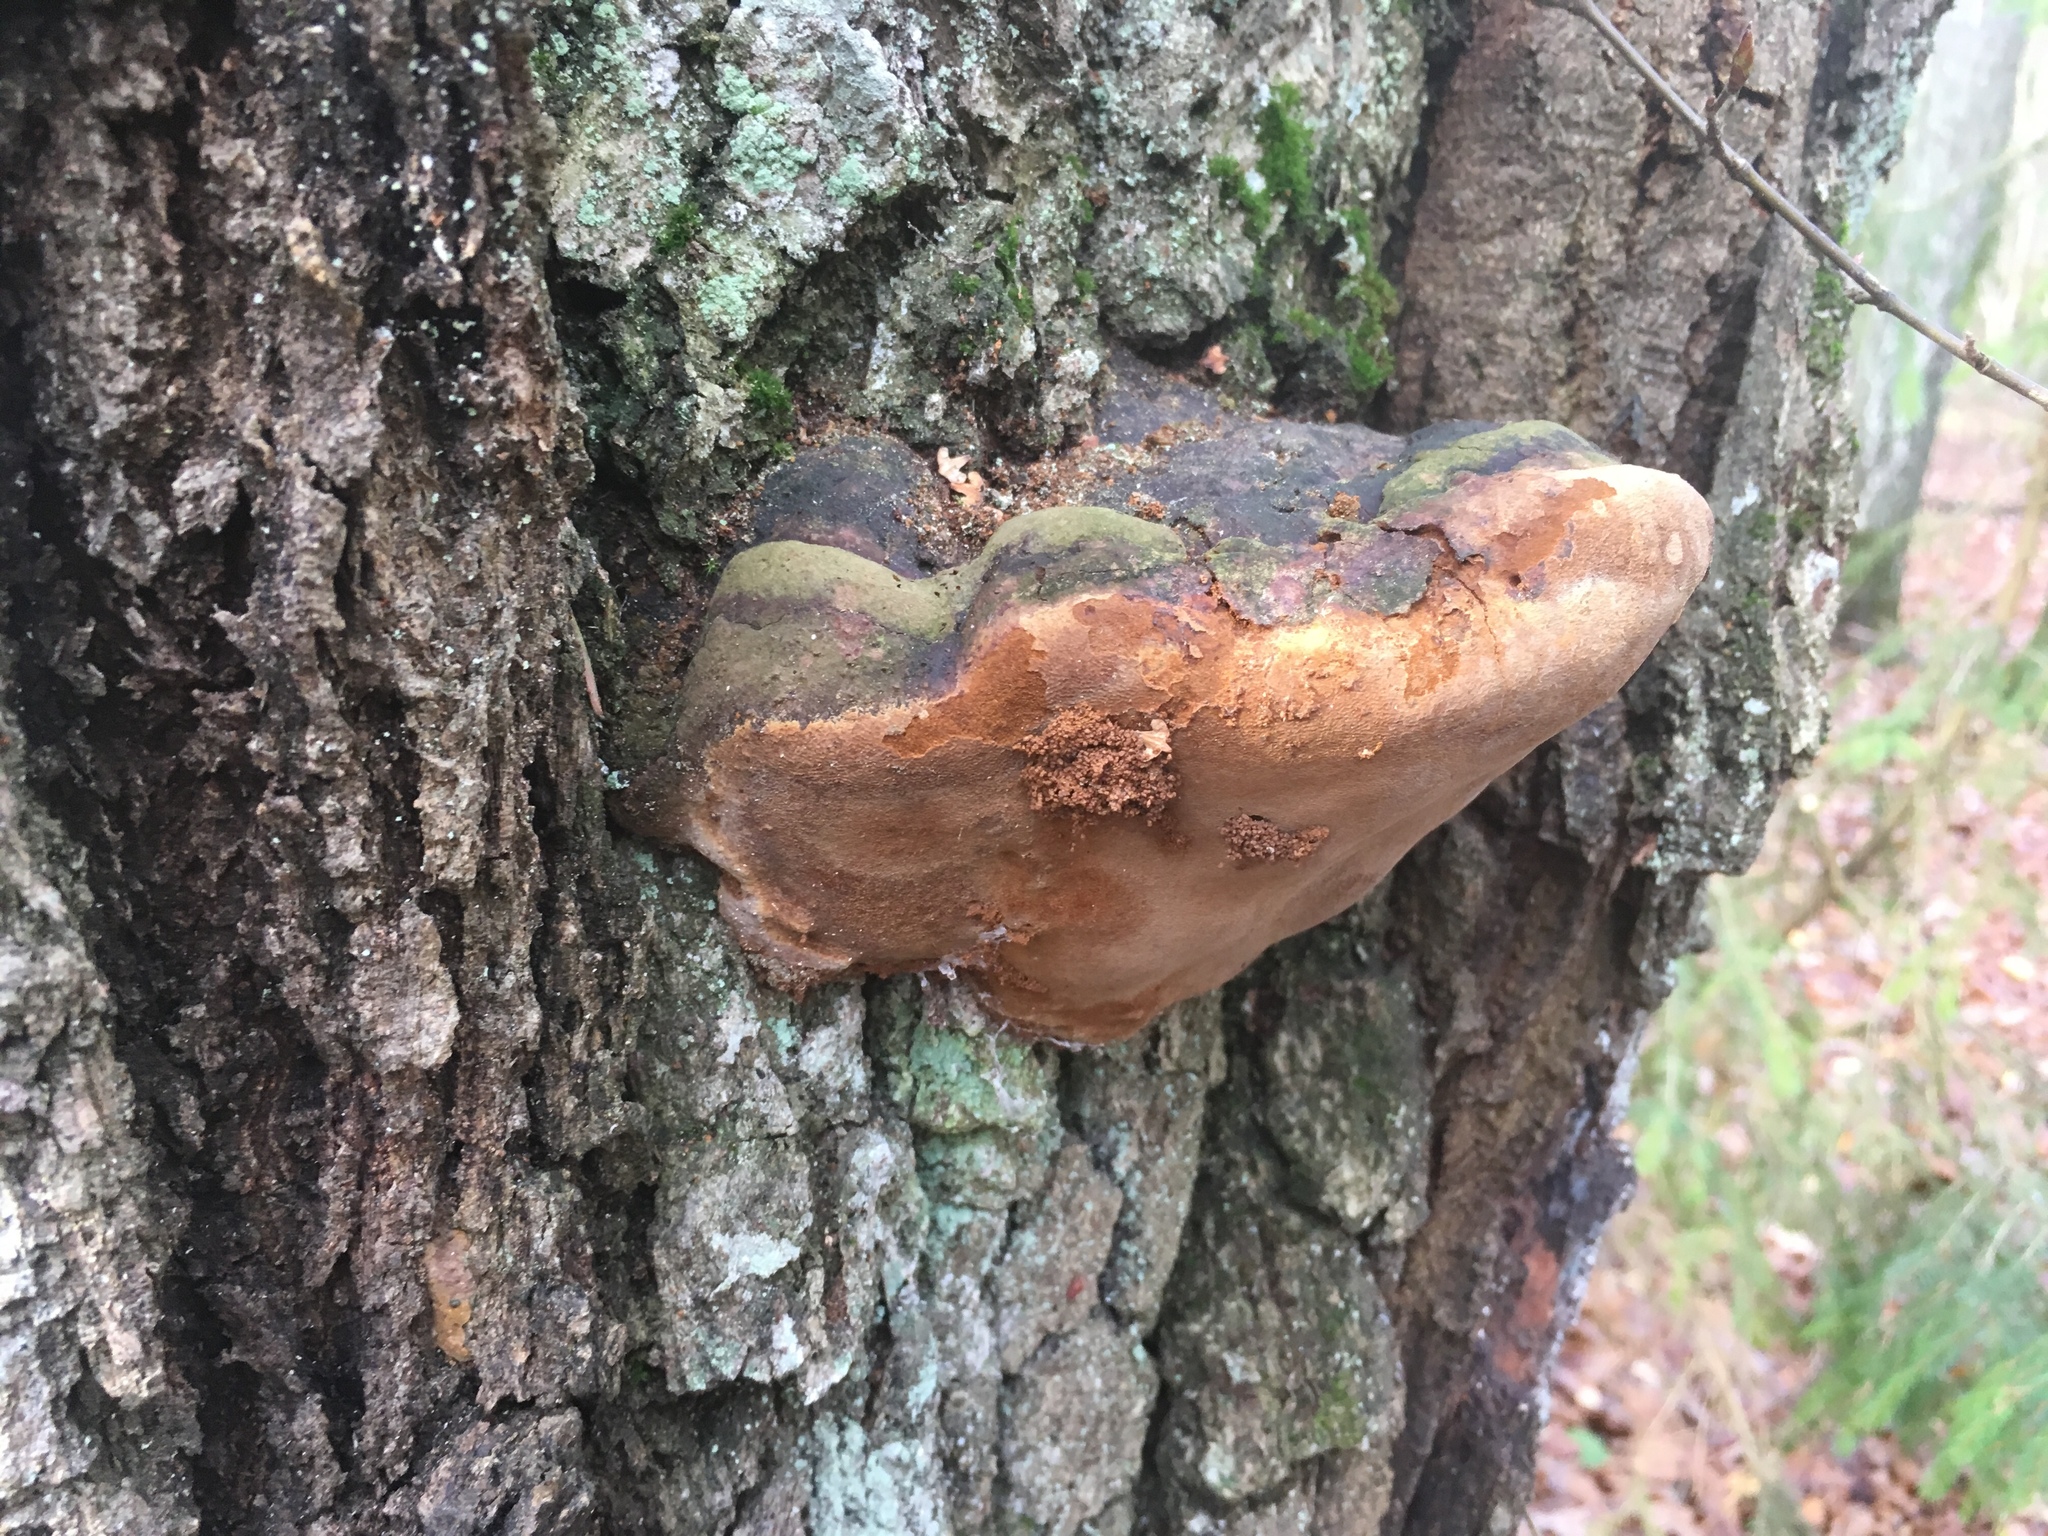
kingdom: Fungi
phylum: Basidiomycota
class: Agaricomycetes
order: Hymenochaetales
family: Hymenochaetaceae
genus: Fomitiporia
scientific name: Fomitiporia robusta
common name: Robust bracket
